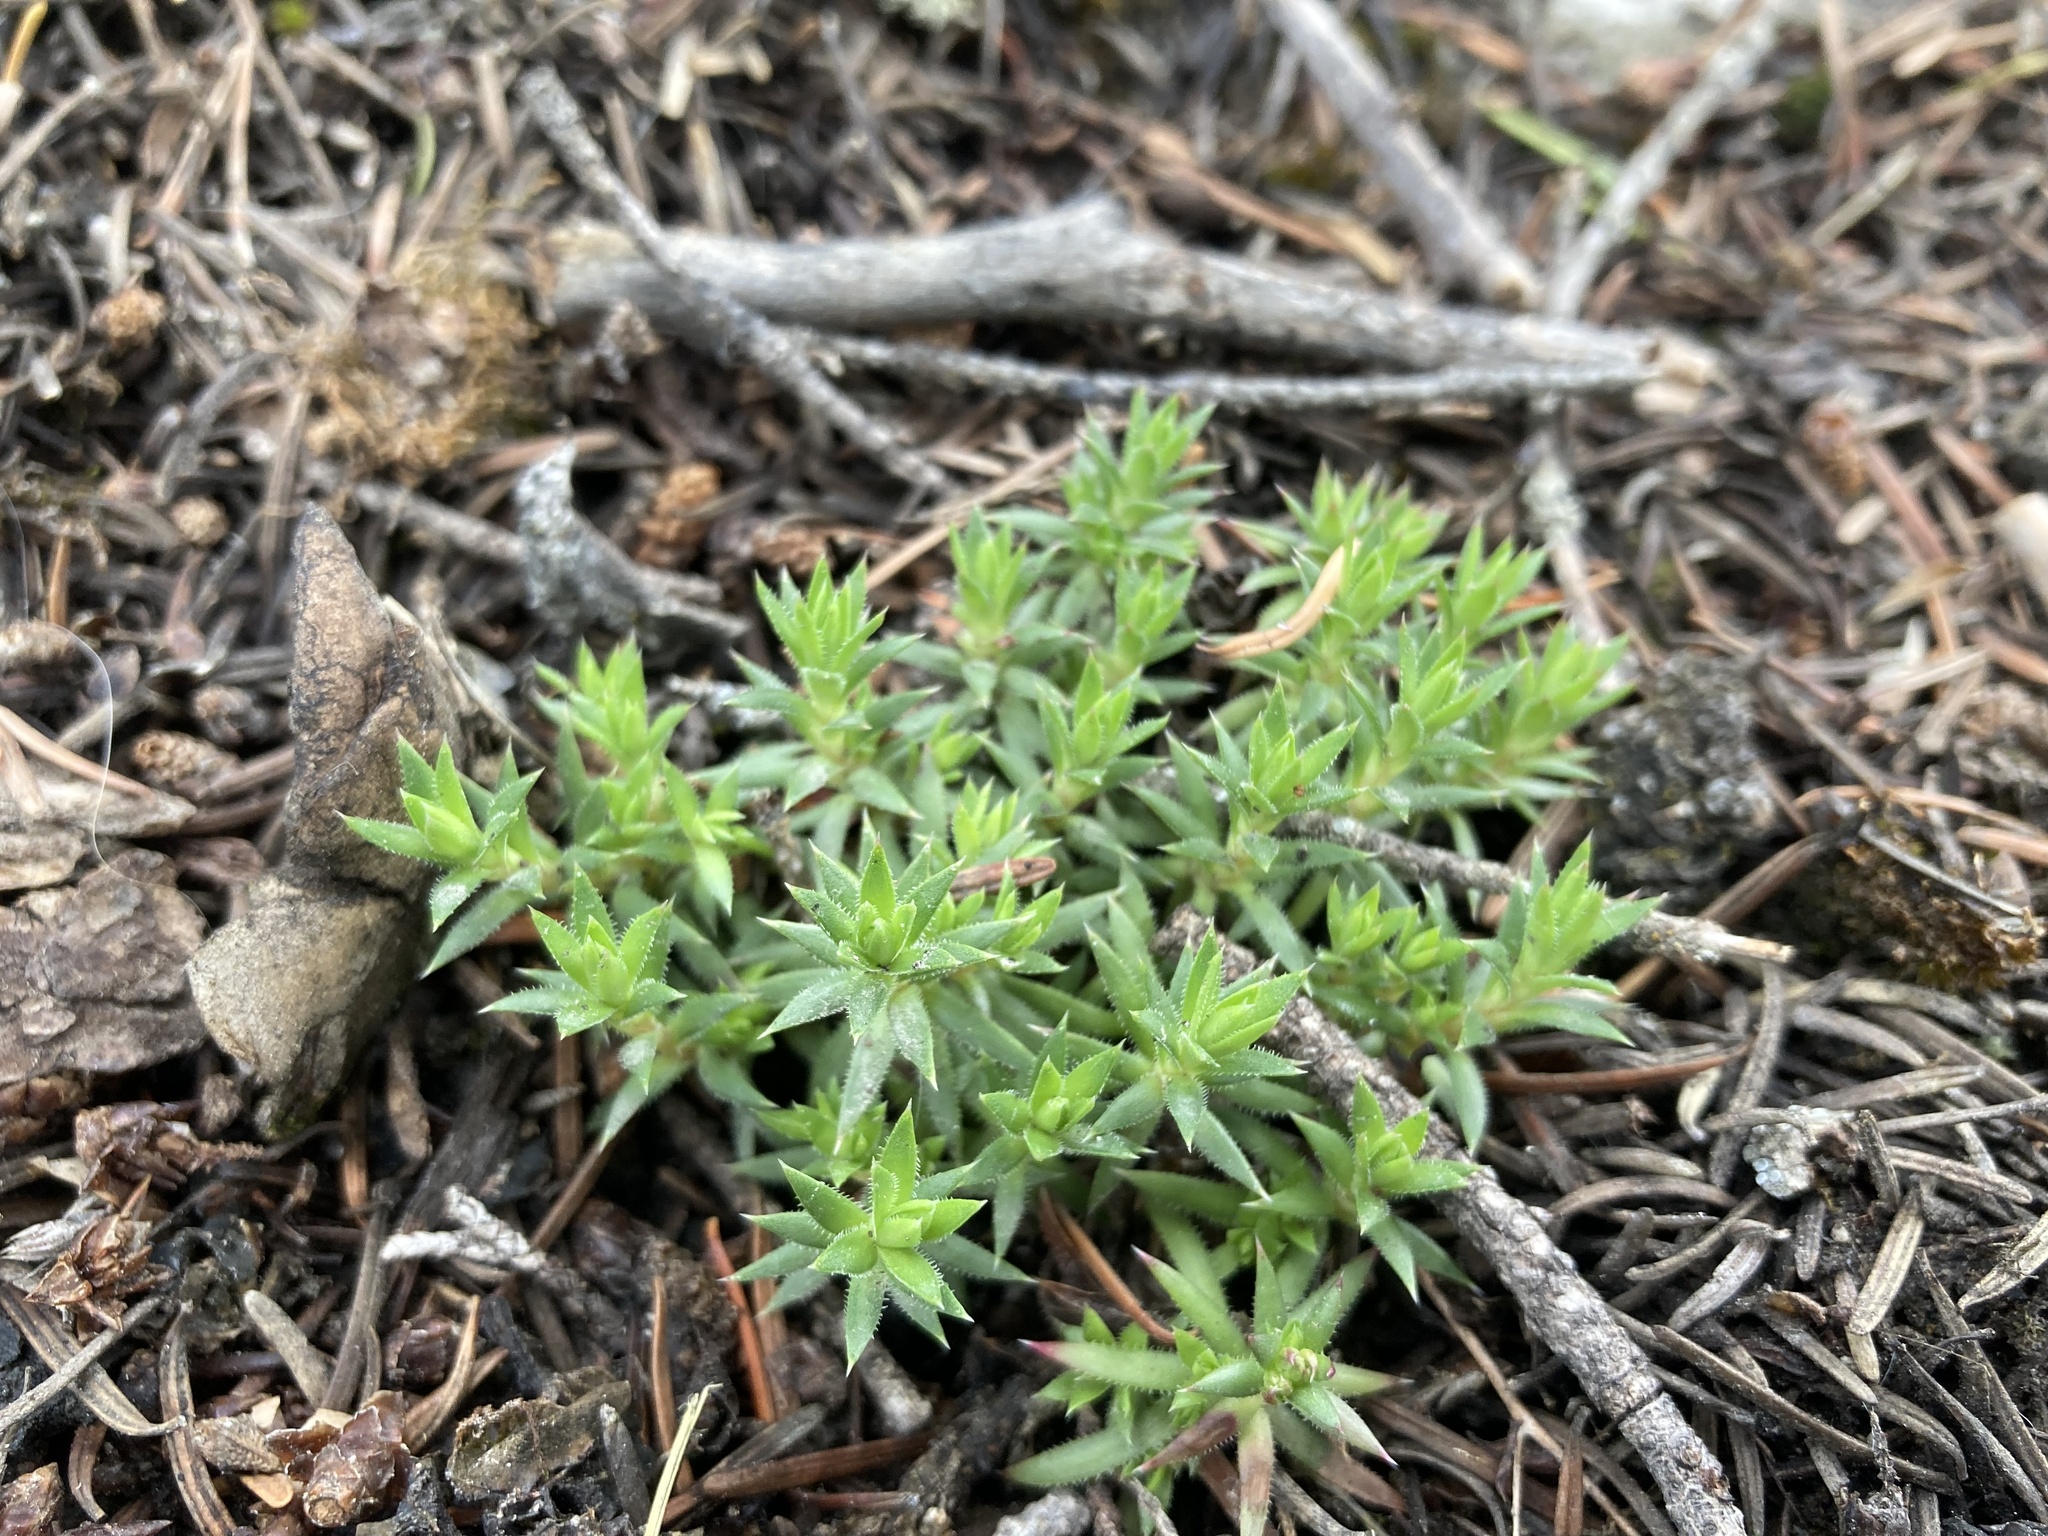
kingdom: Plantae
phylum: Tracheophyta
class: Magnoliopsida
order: Saxifragales
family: Saxifragaceae
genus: Saxifraga
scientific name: Saxifraga bronchialis
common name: Matted saxifrage
